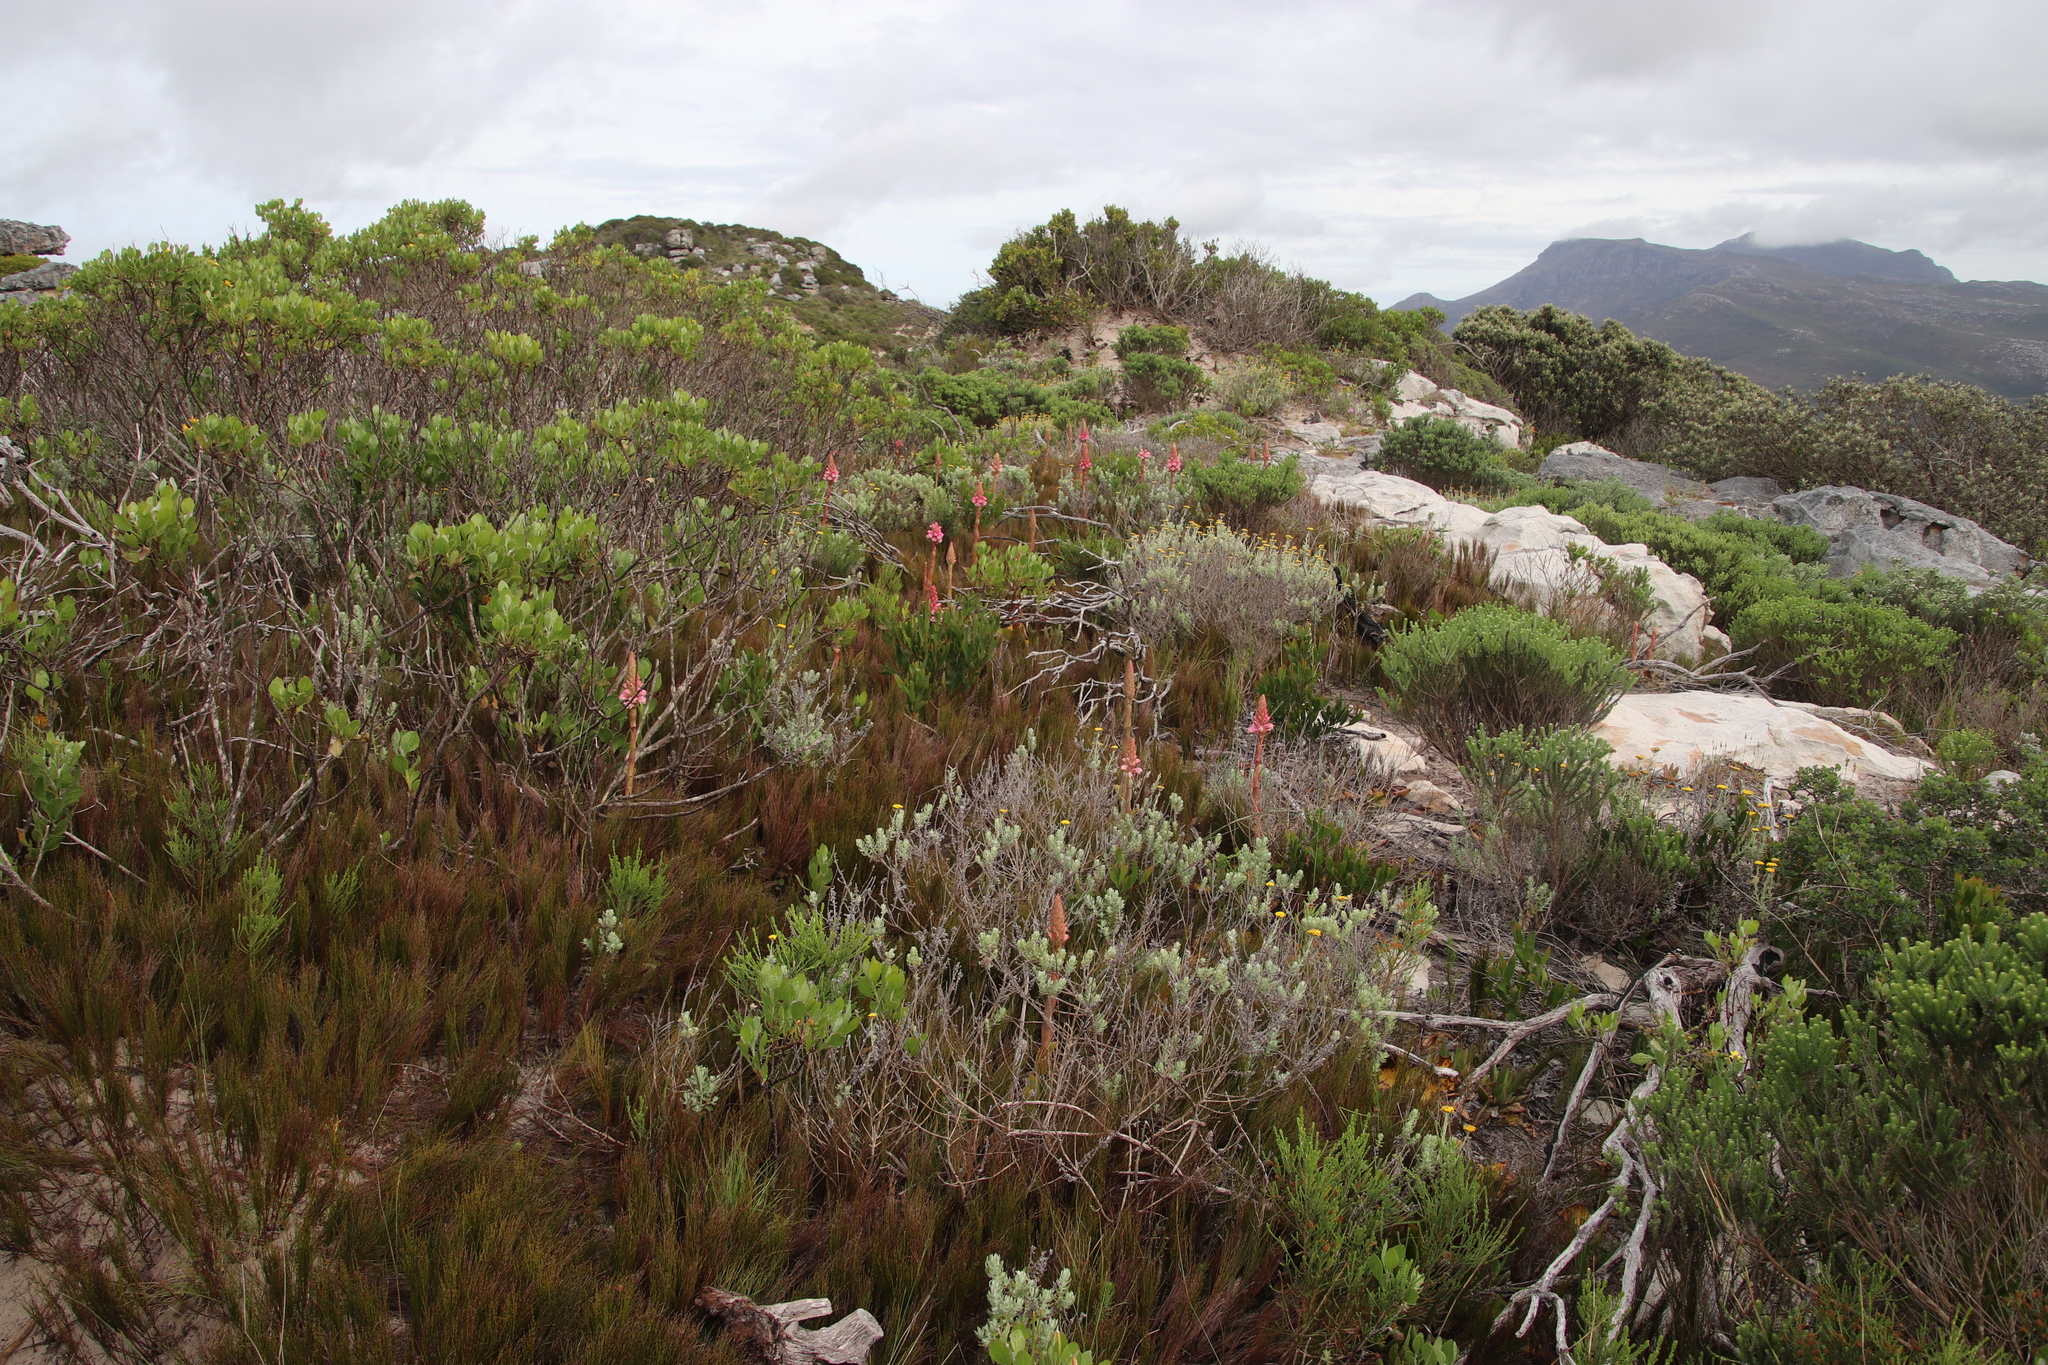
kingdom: Plantae
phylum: Tracheophyta
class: Liliopsida
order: Asparagales
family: Orchidaceae
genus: Satyrium
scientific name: Satyrium carneum
